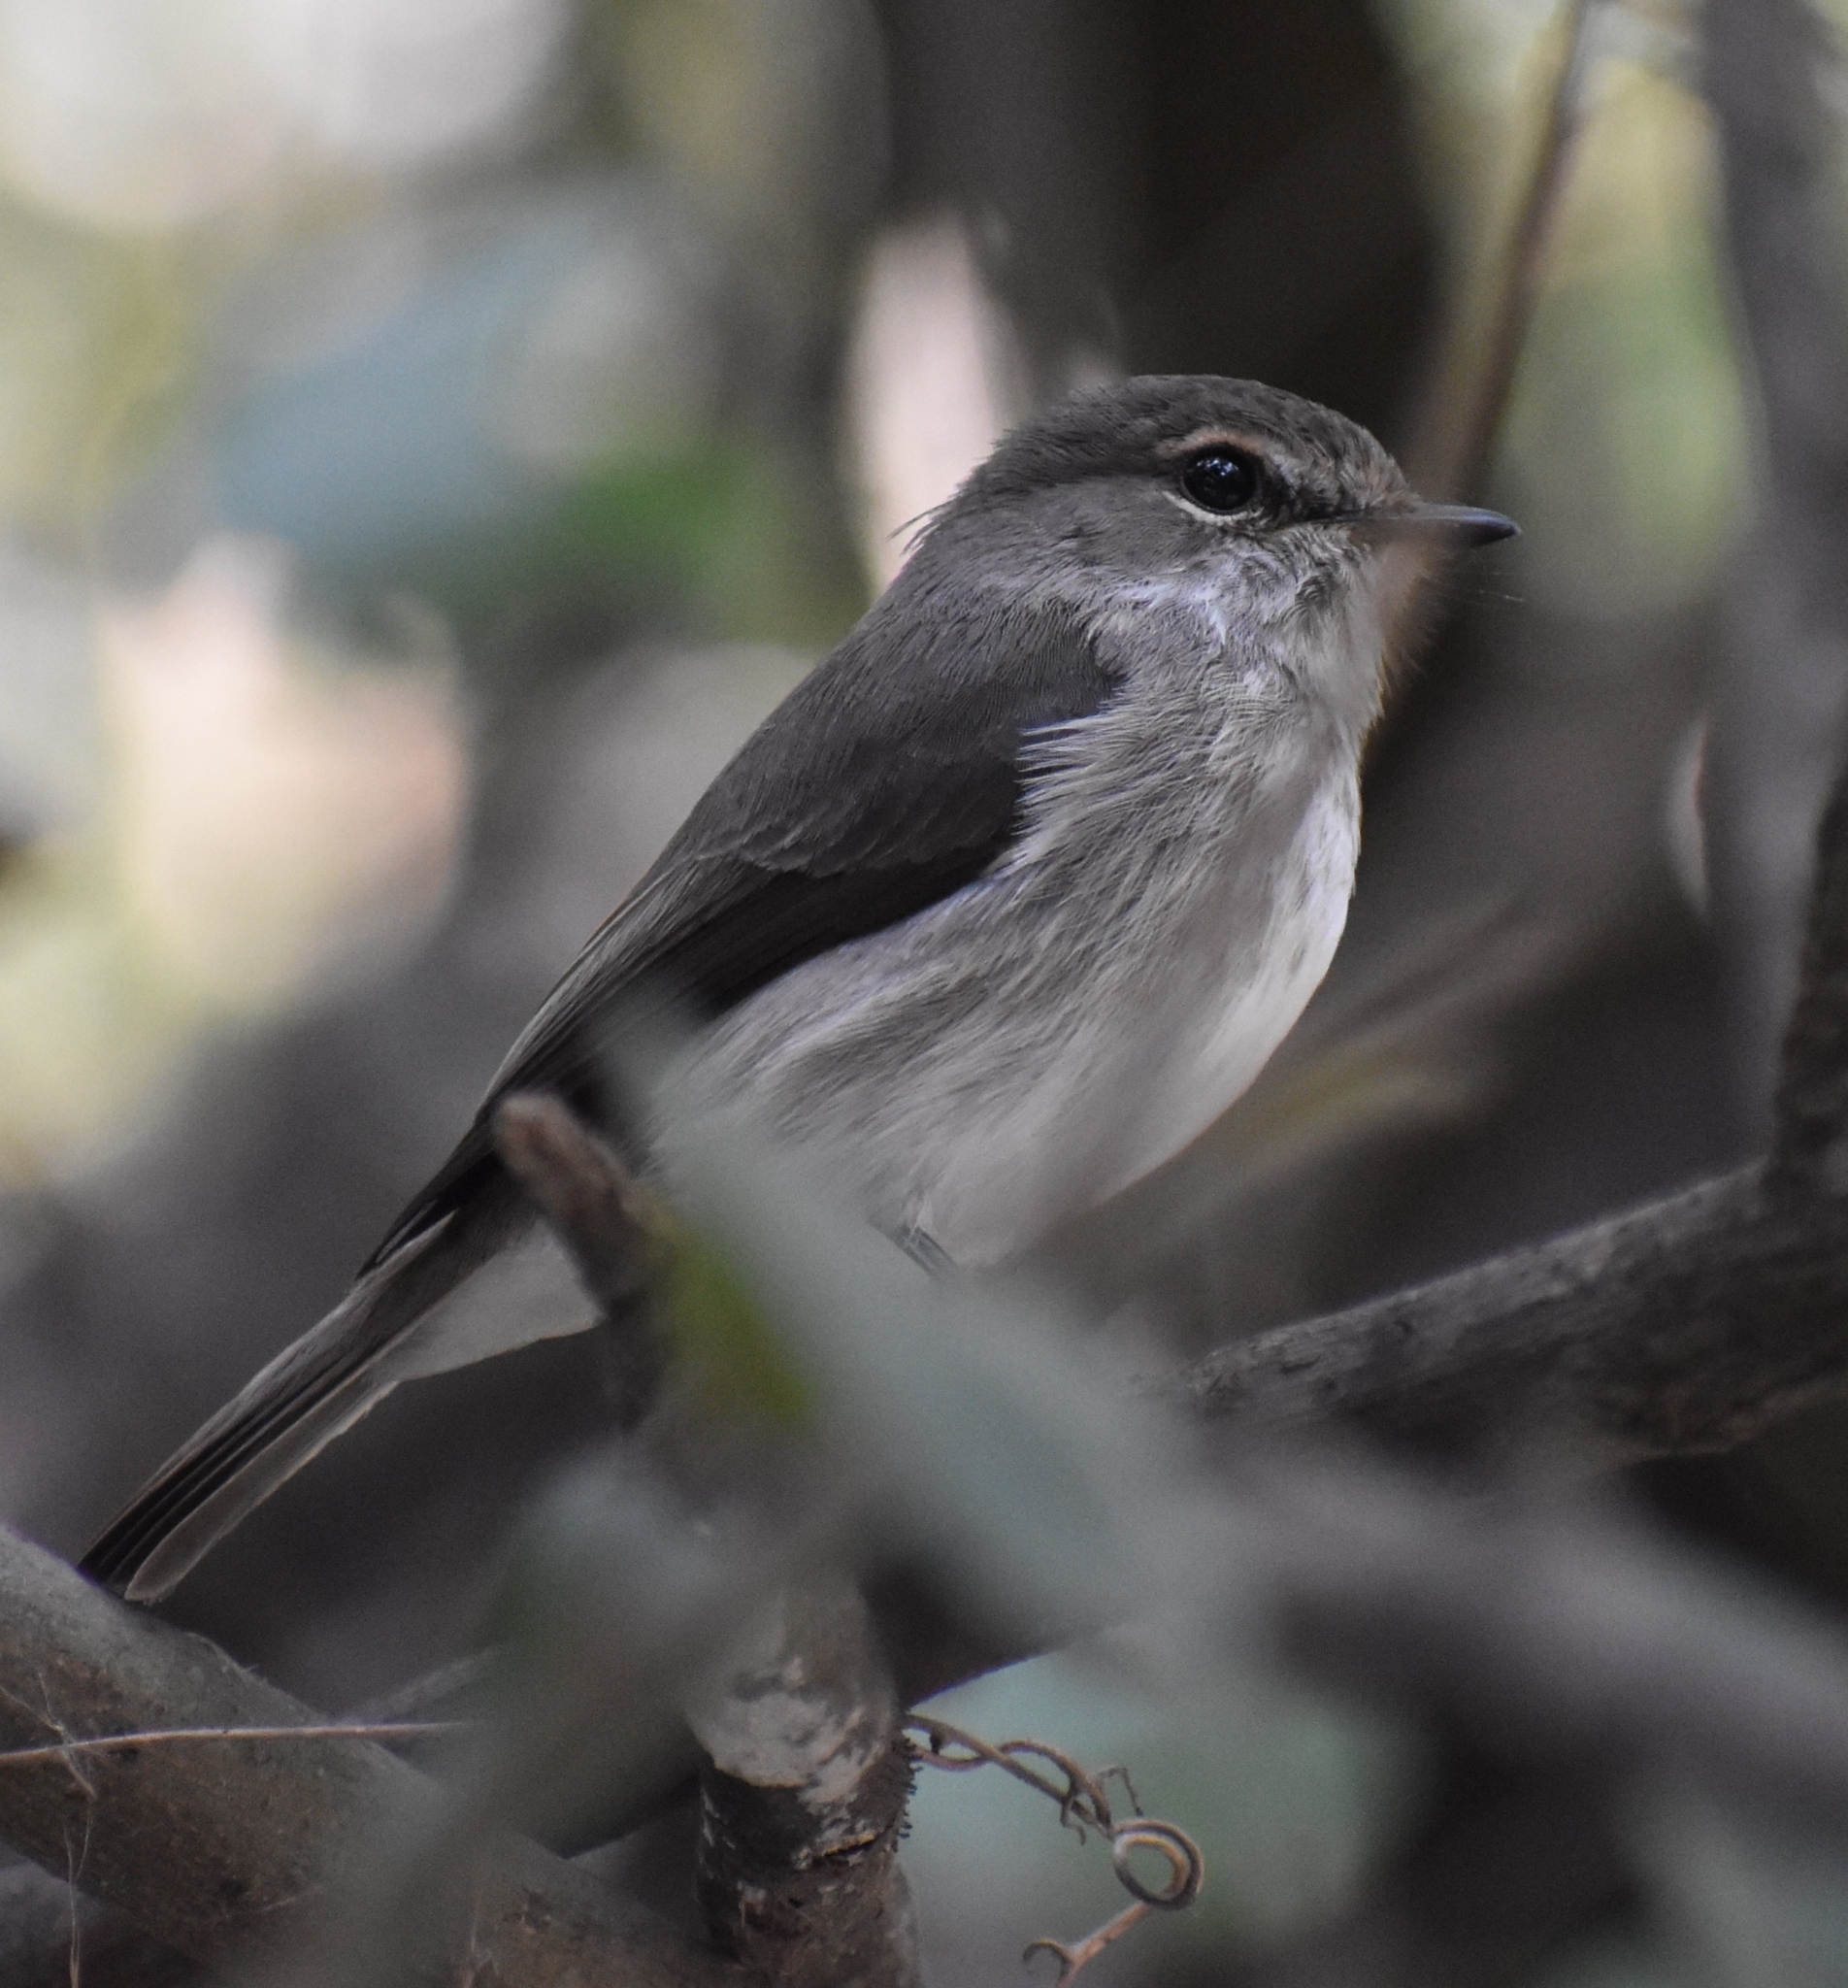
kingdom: Animalia
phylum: Chordata
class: Aves
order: Passeriformes
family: Muscicapidae
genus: Muscicapa
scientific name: Muscicapa adusta
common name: African dusky flycatcher
